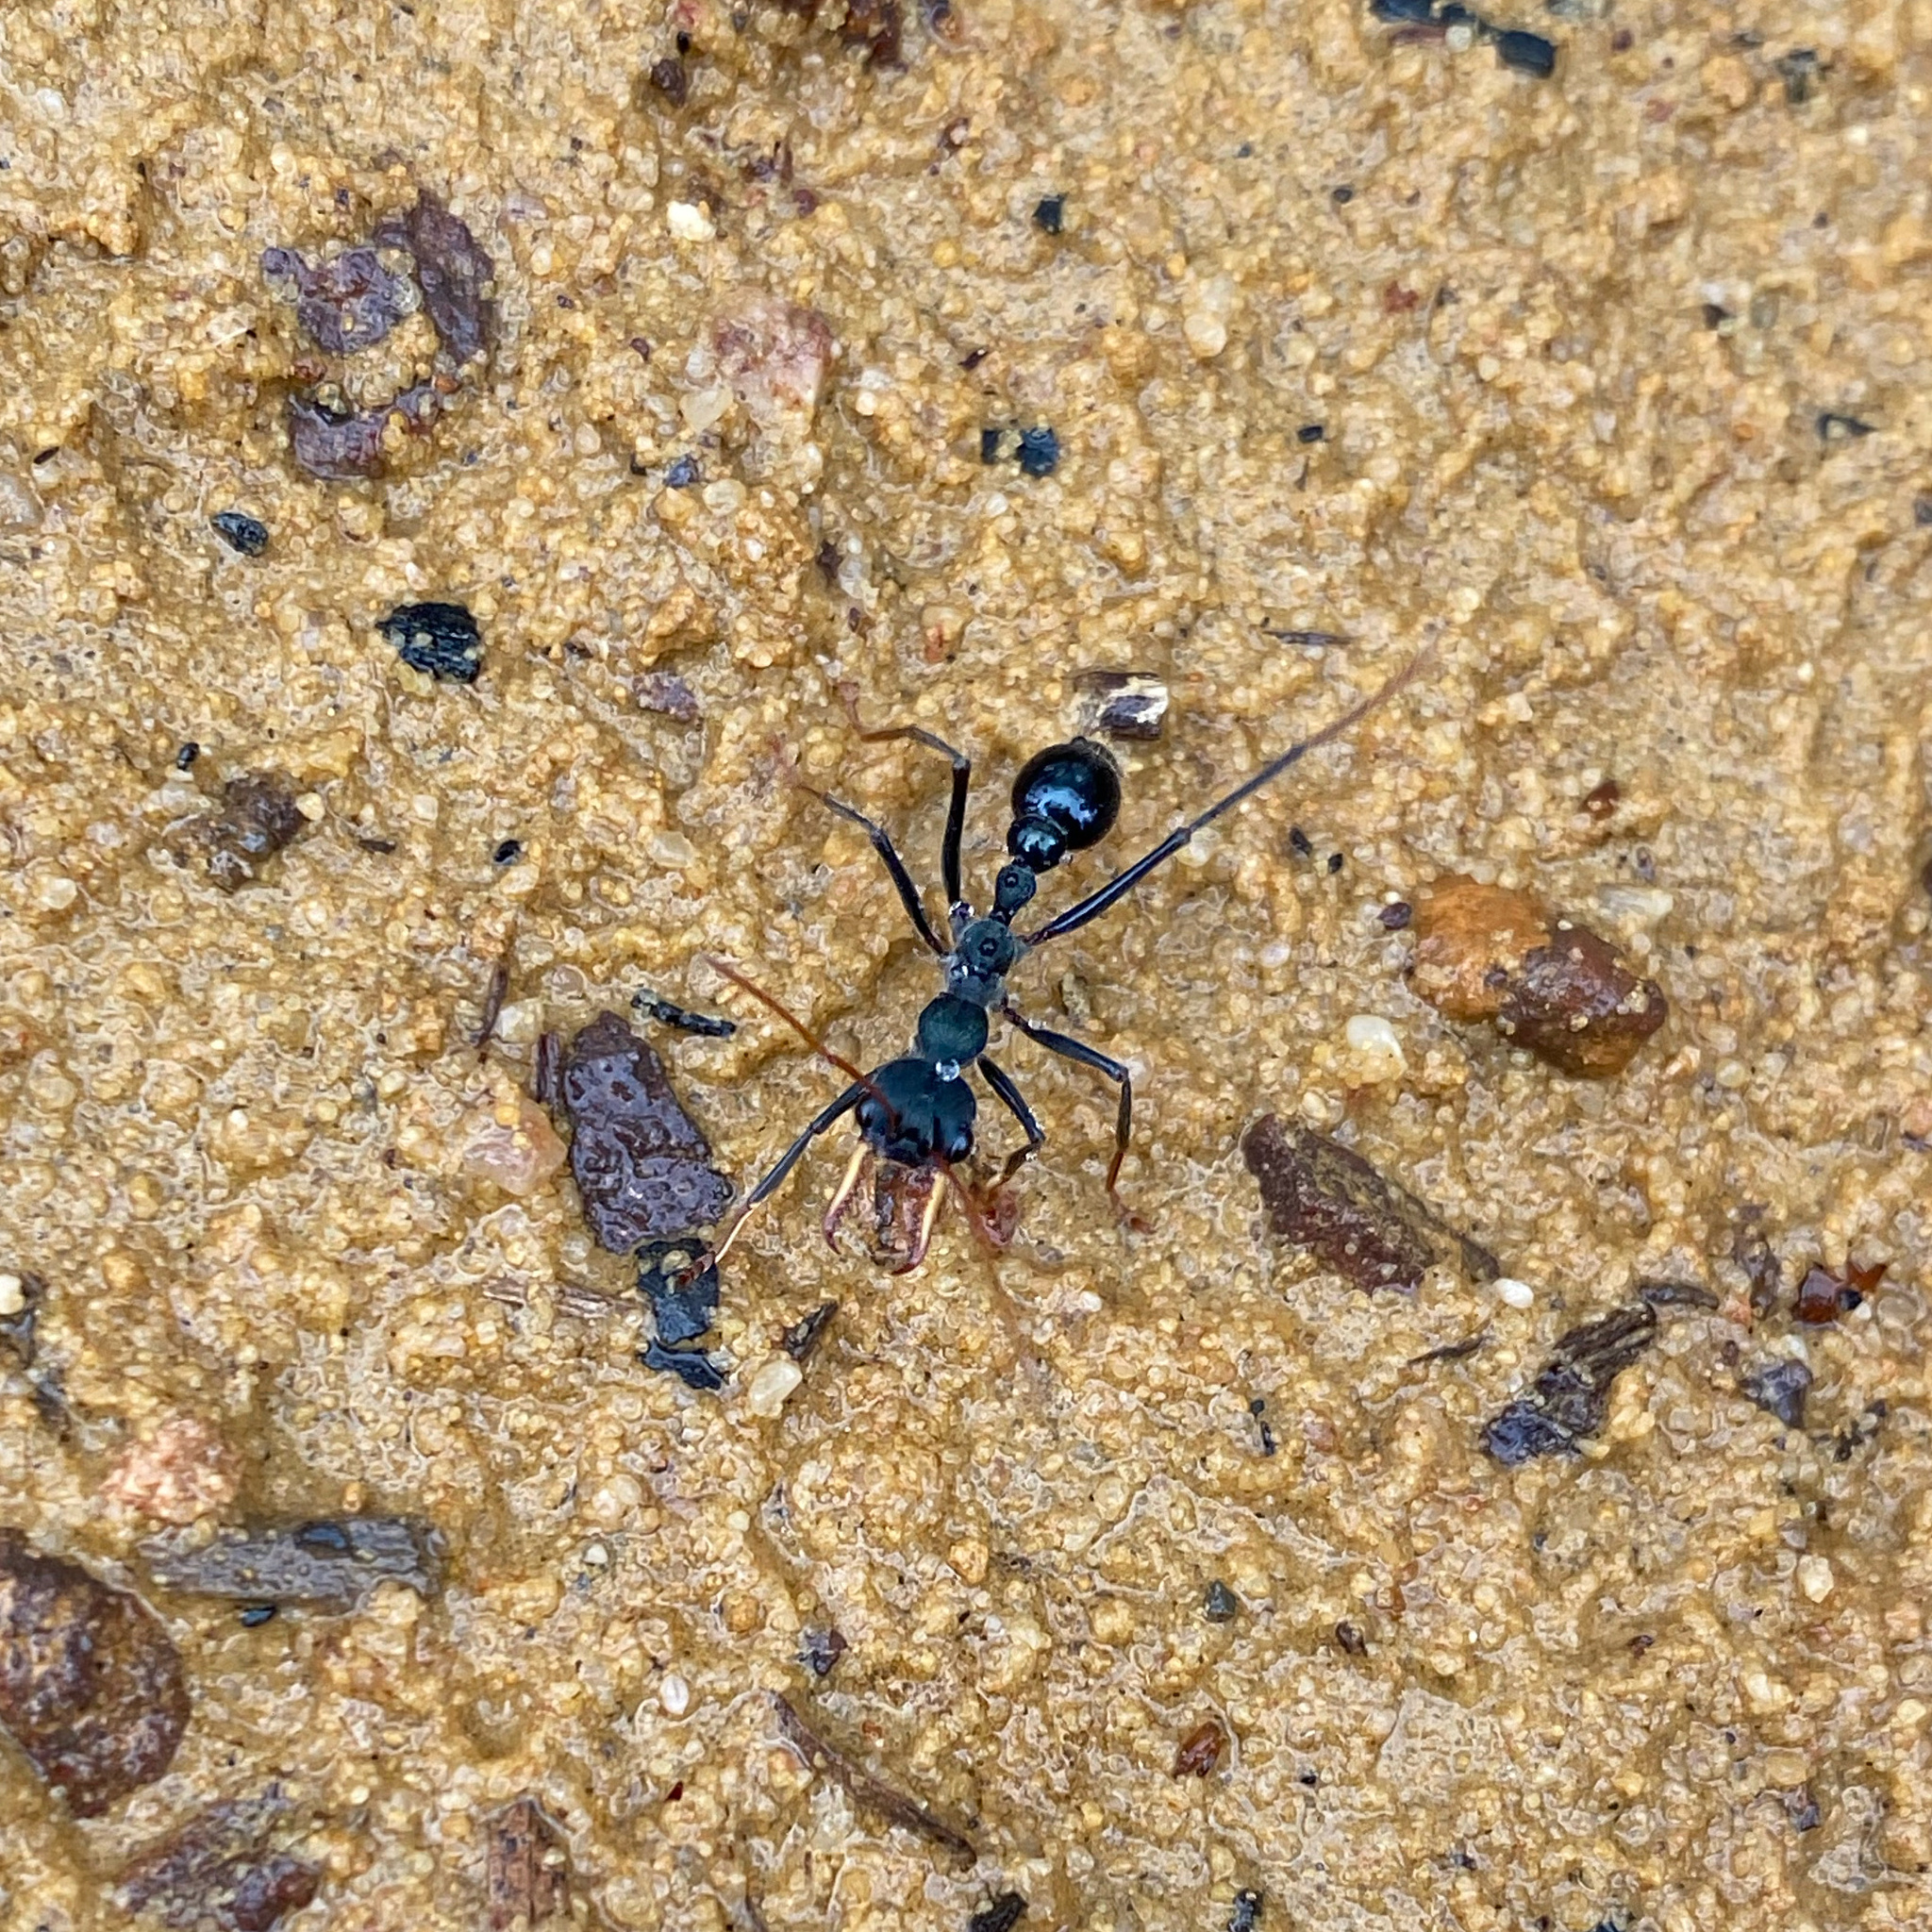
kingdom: Animalia
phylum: Arthropoda
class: Insecta
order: Hymenoptera
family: Formicidae
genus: Myrmecia
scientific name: Myrmecia tarsata
